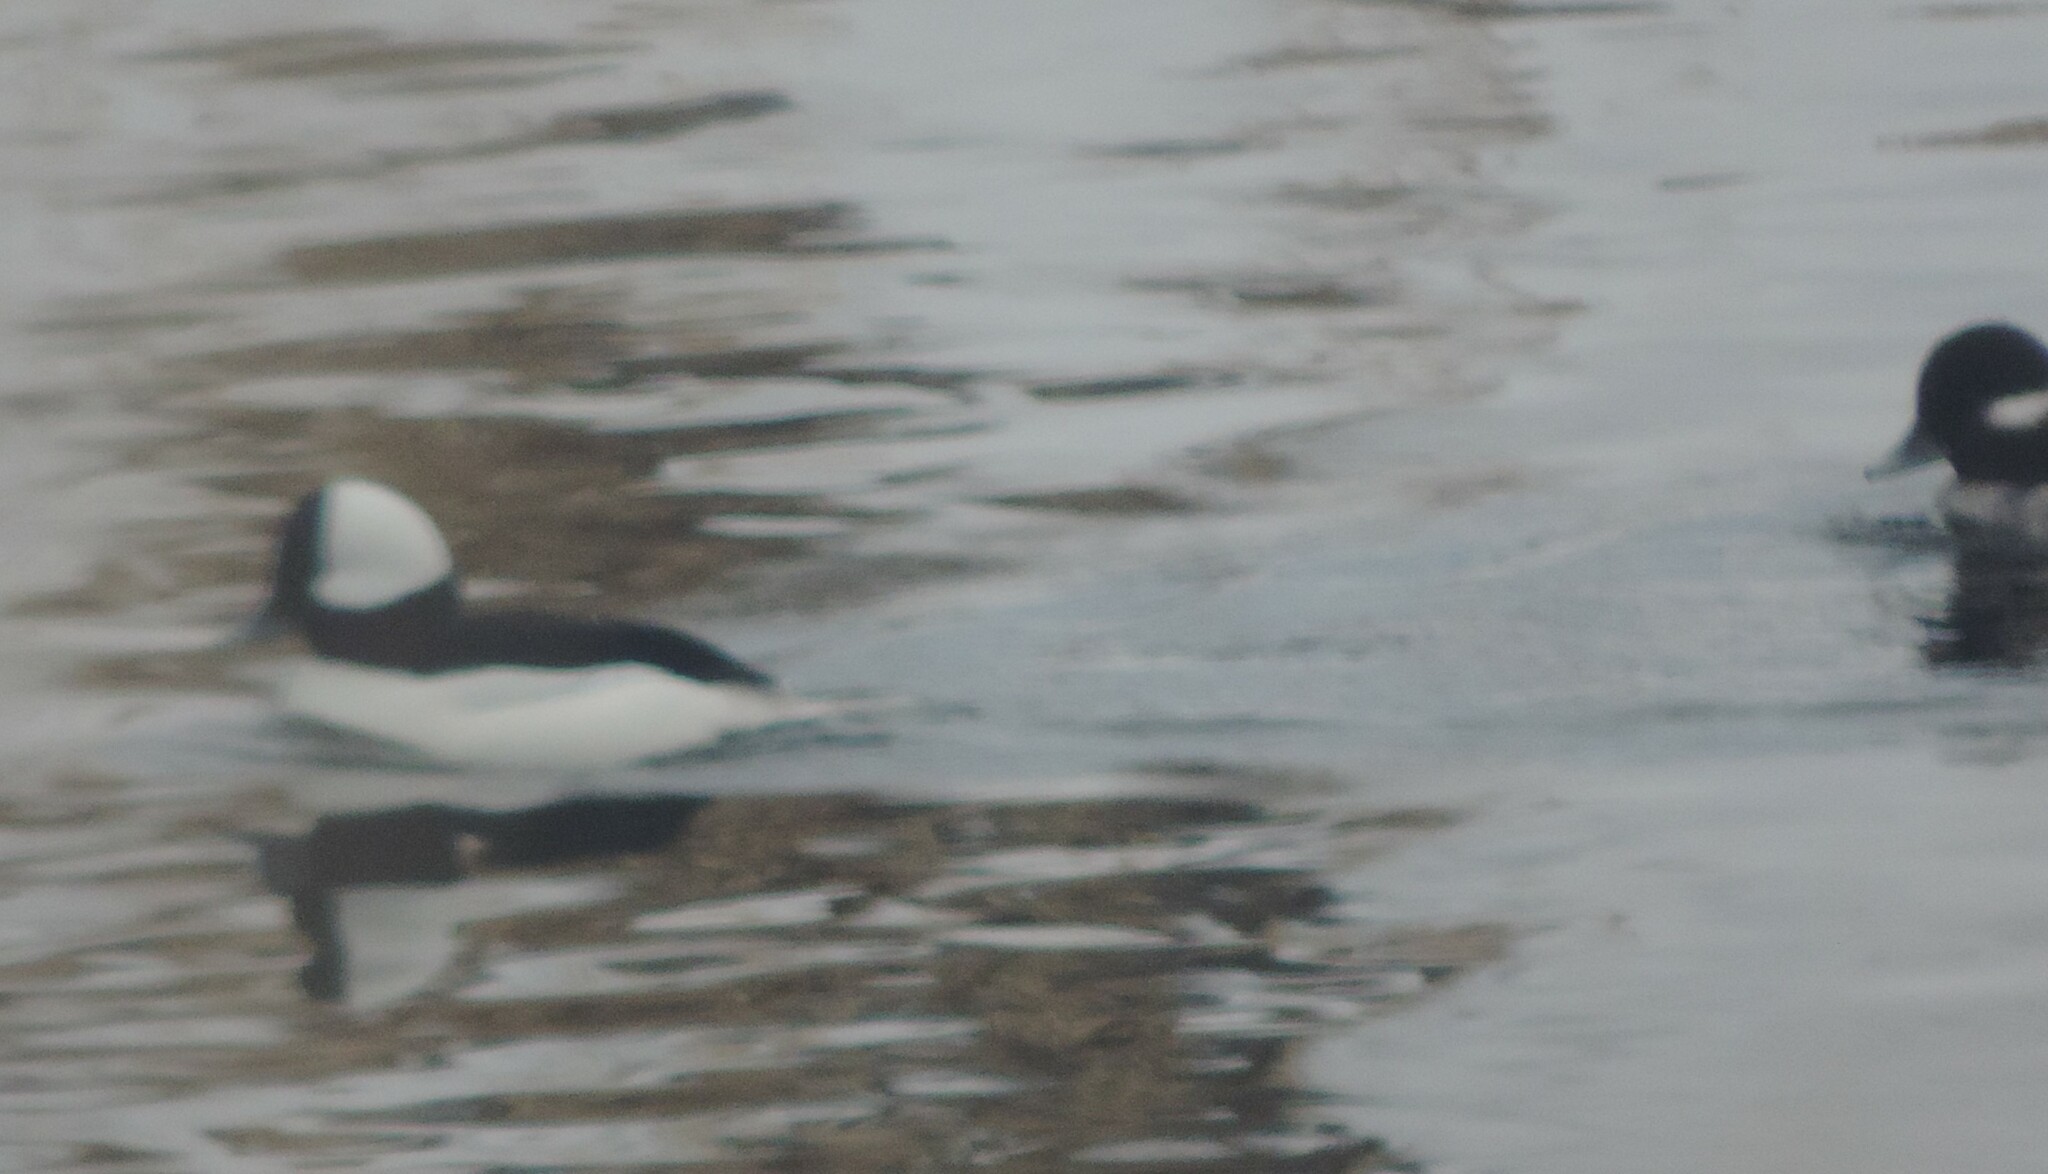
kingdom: Animalia
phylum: Chordata
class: Aves
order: Anseriformes
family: Anatidae
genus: Bucephala
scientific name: Bucephala albeola
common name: Bufflehead
